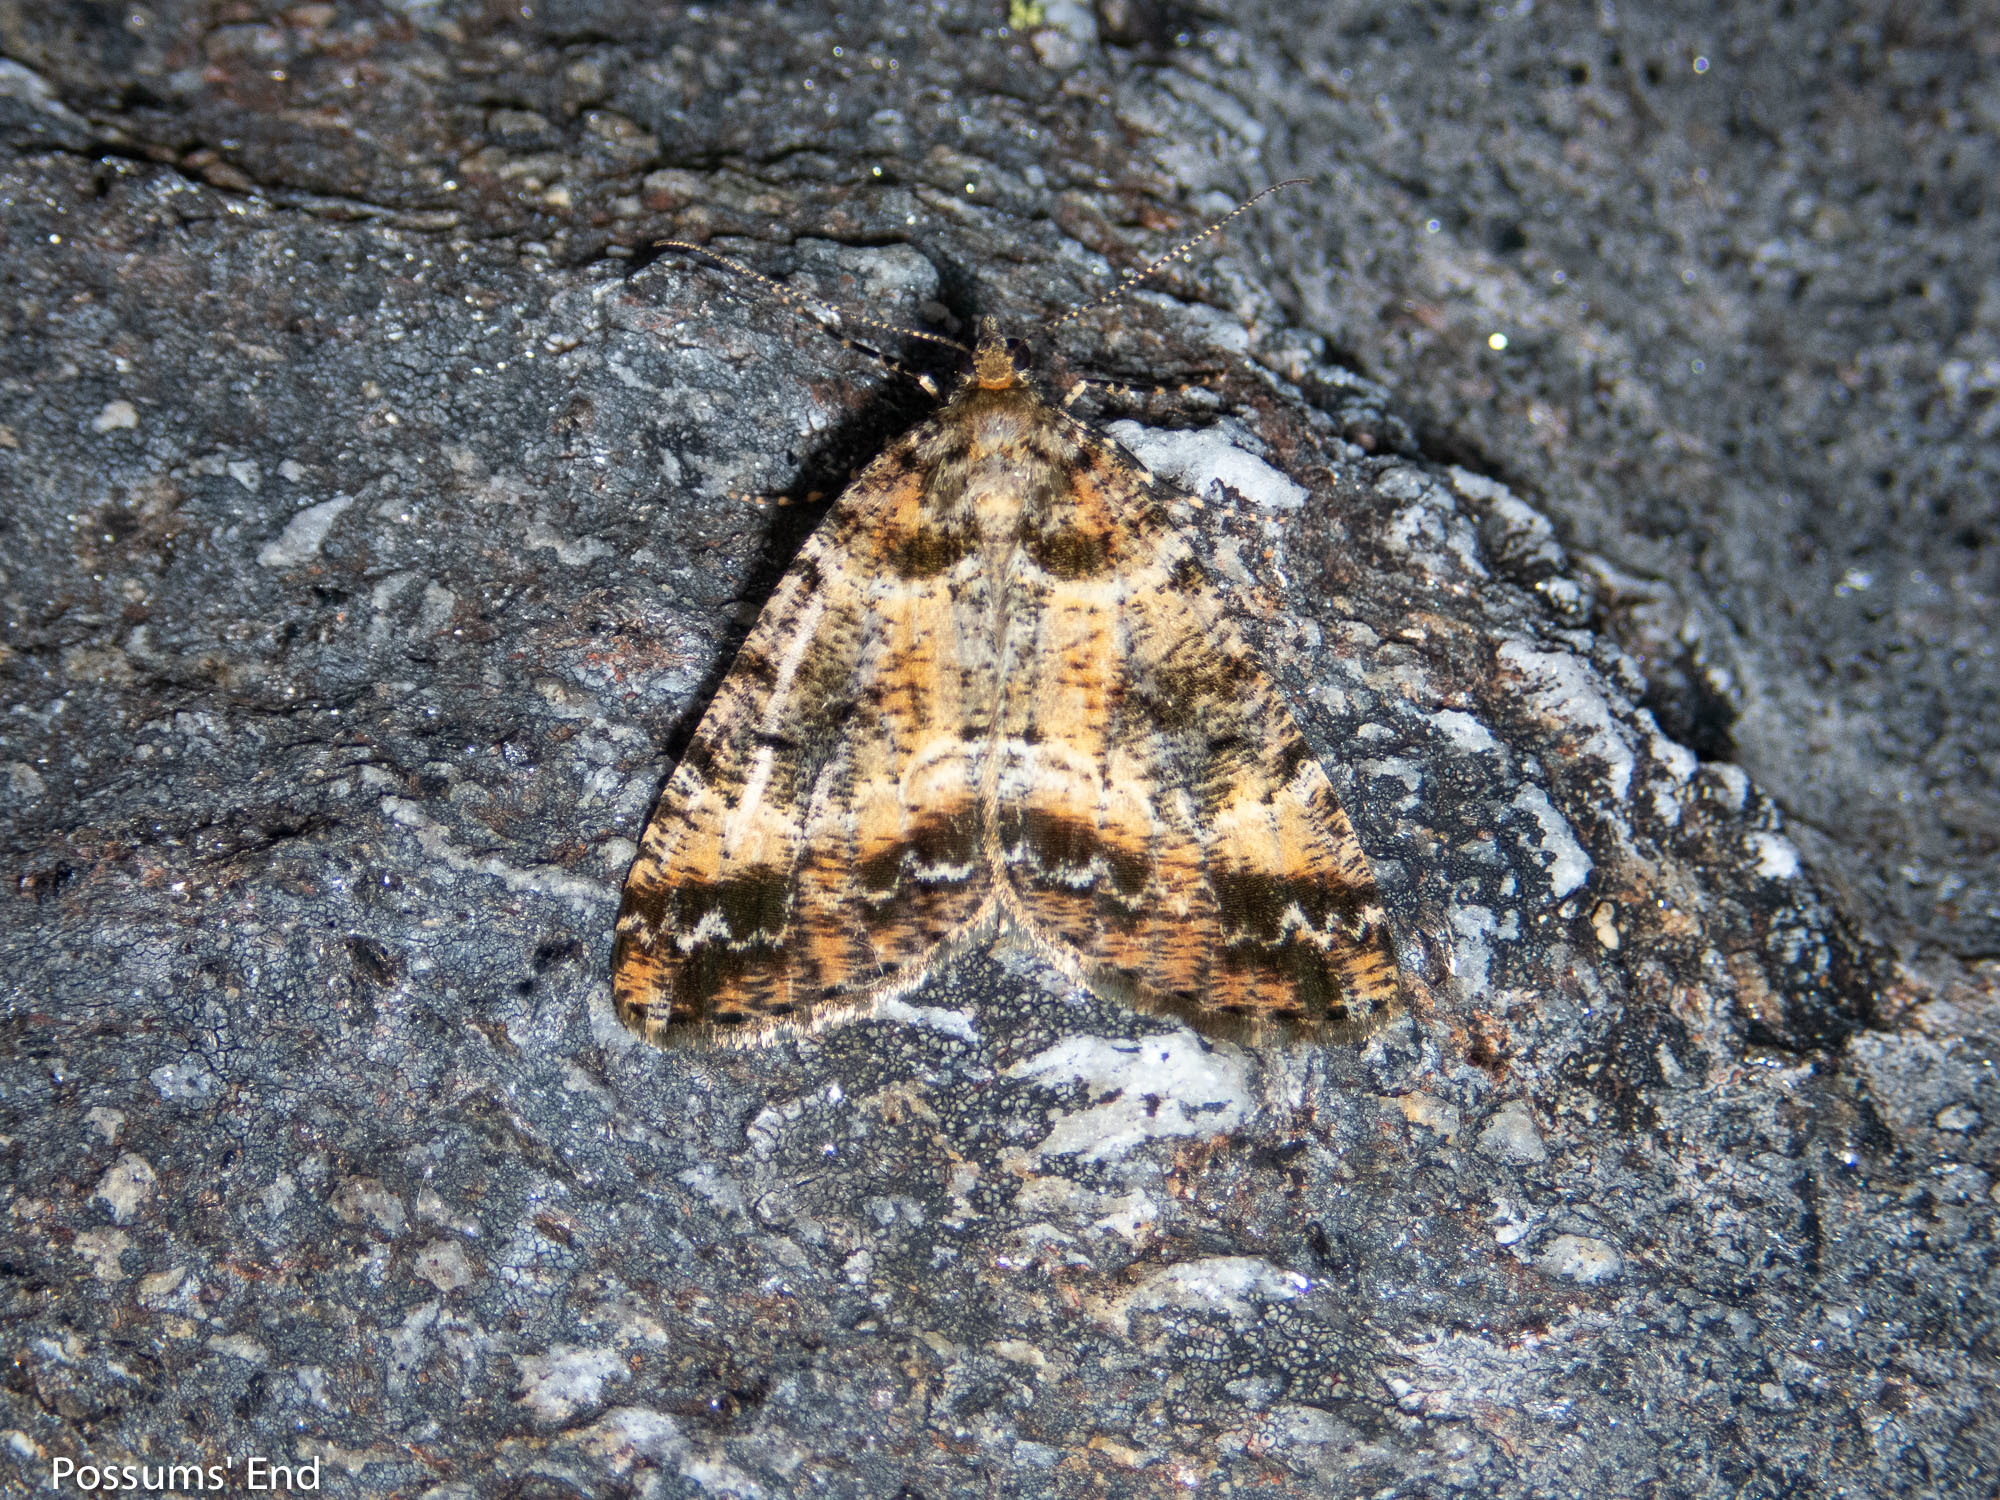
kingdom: Animalia
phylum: Arthropoda
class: Insecta
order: Lepidoptera
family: Geometridae
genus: Pseudocoremia
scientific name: Pseudocoremia productata
